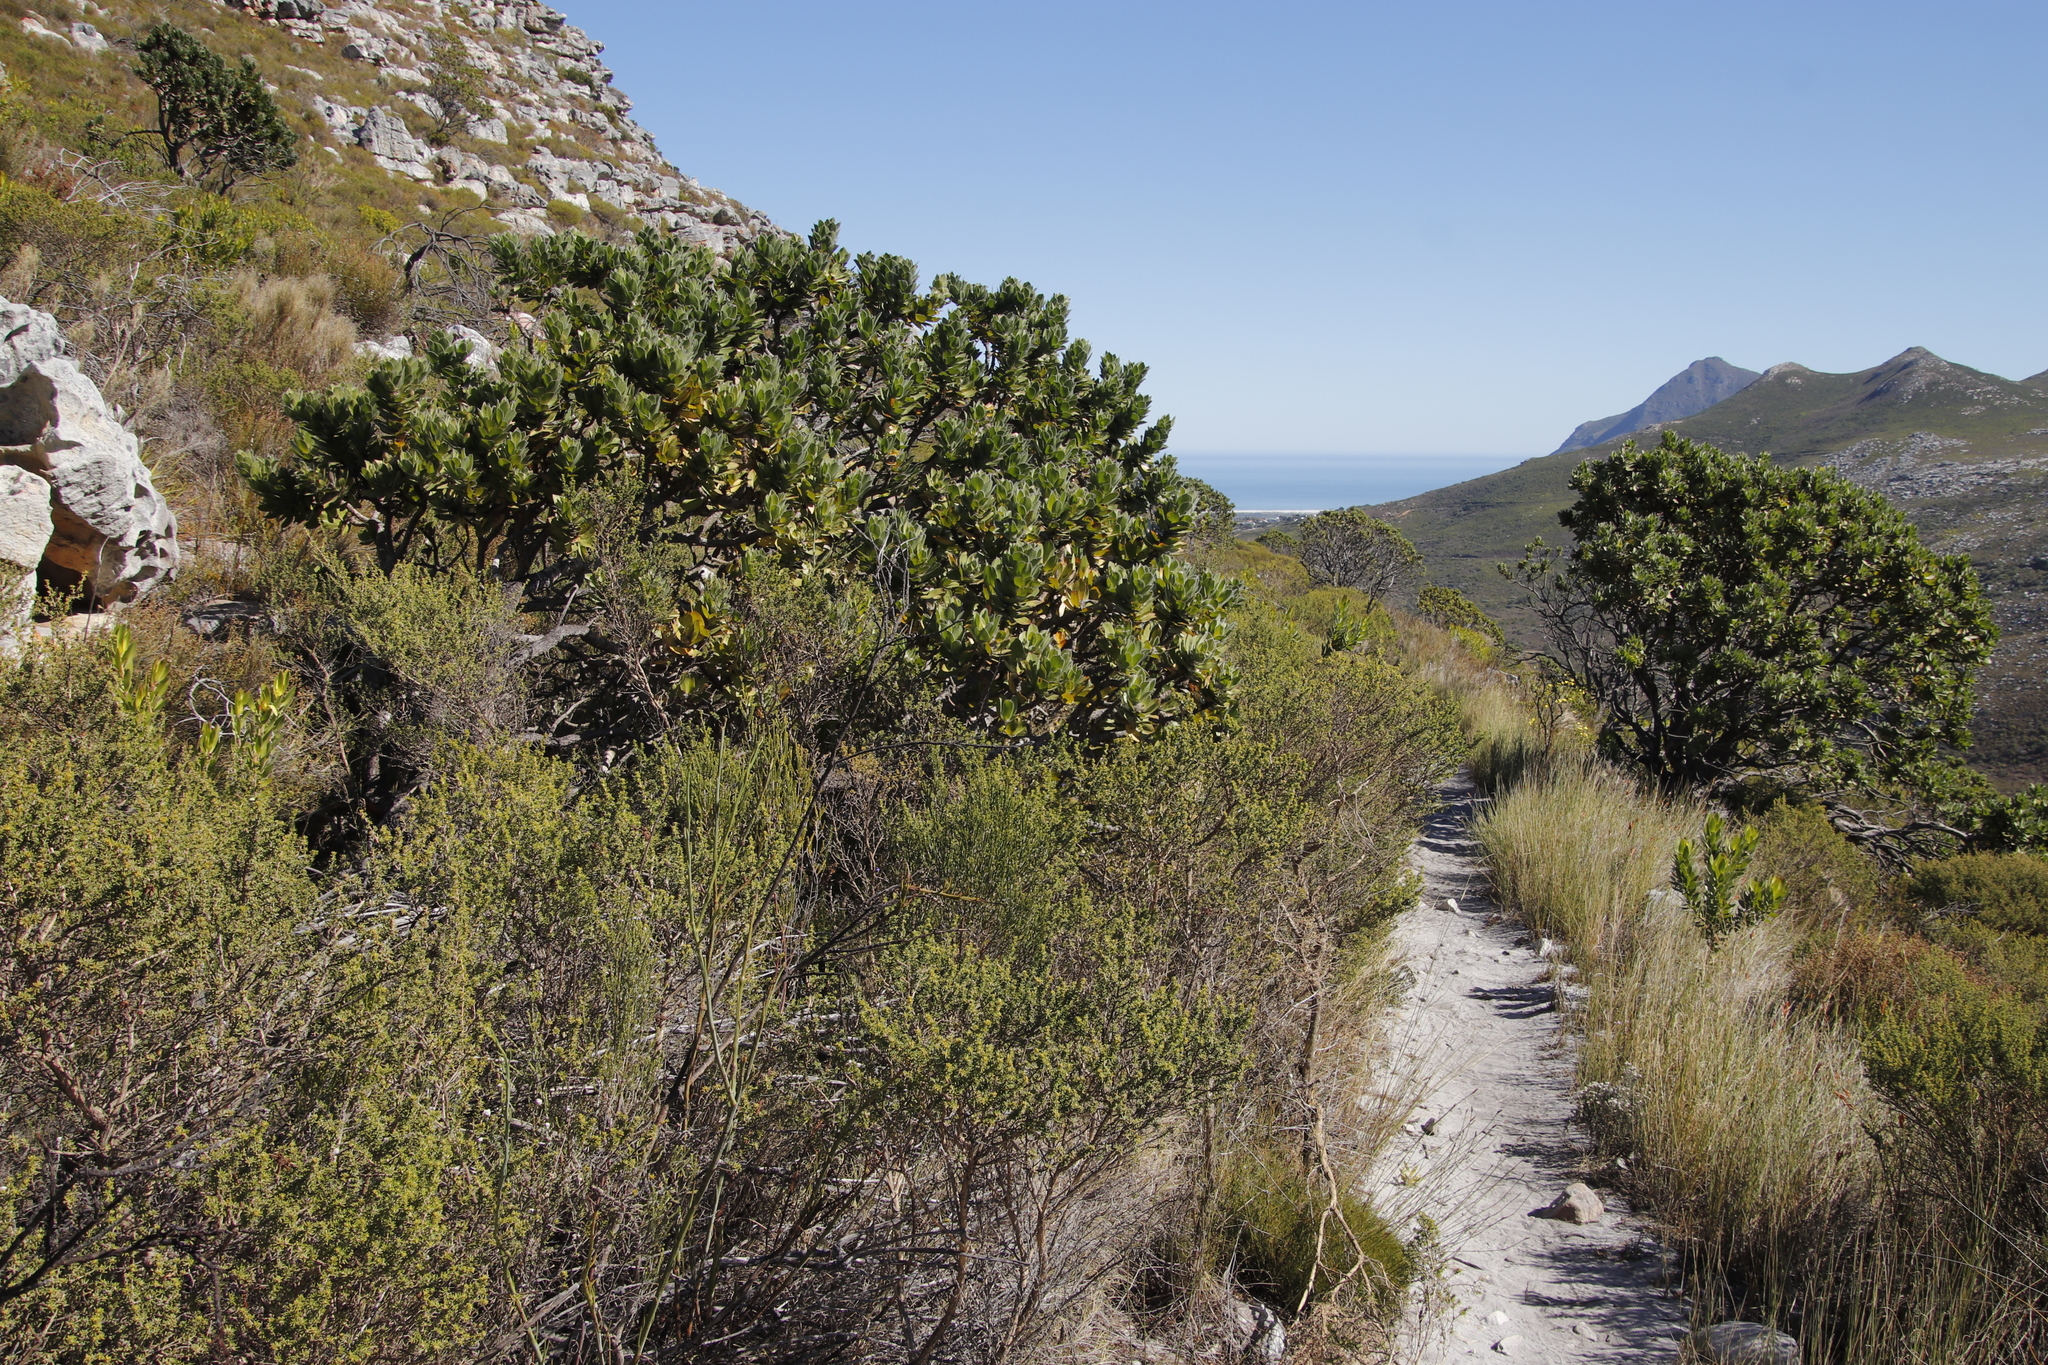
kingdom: Plantae
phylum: Tracheophyta
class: Magnoliopsida
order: Proteales
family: Proteaceae
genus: Leucospermum
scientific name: Leucospermum conocarpodendron
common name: Tree pincushion
